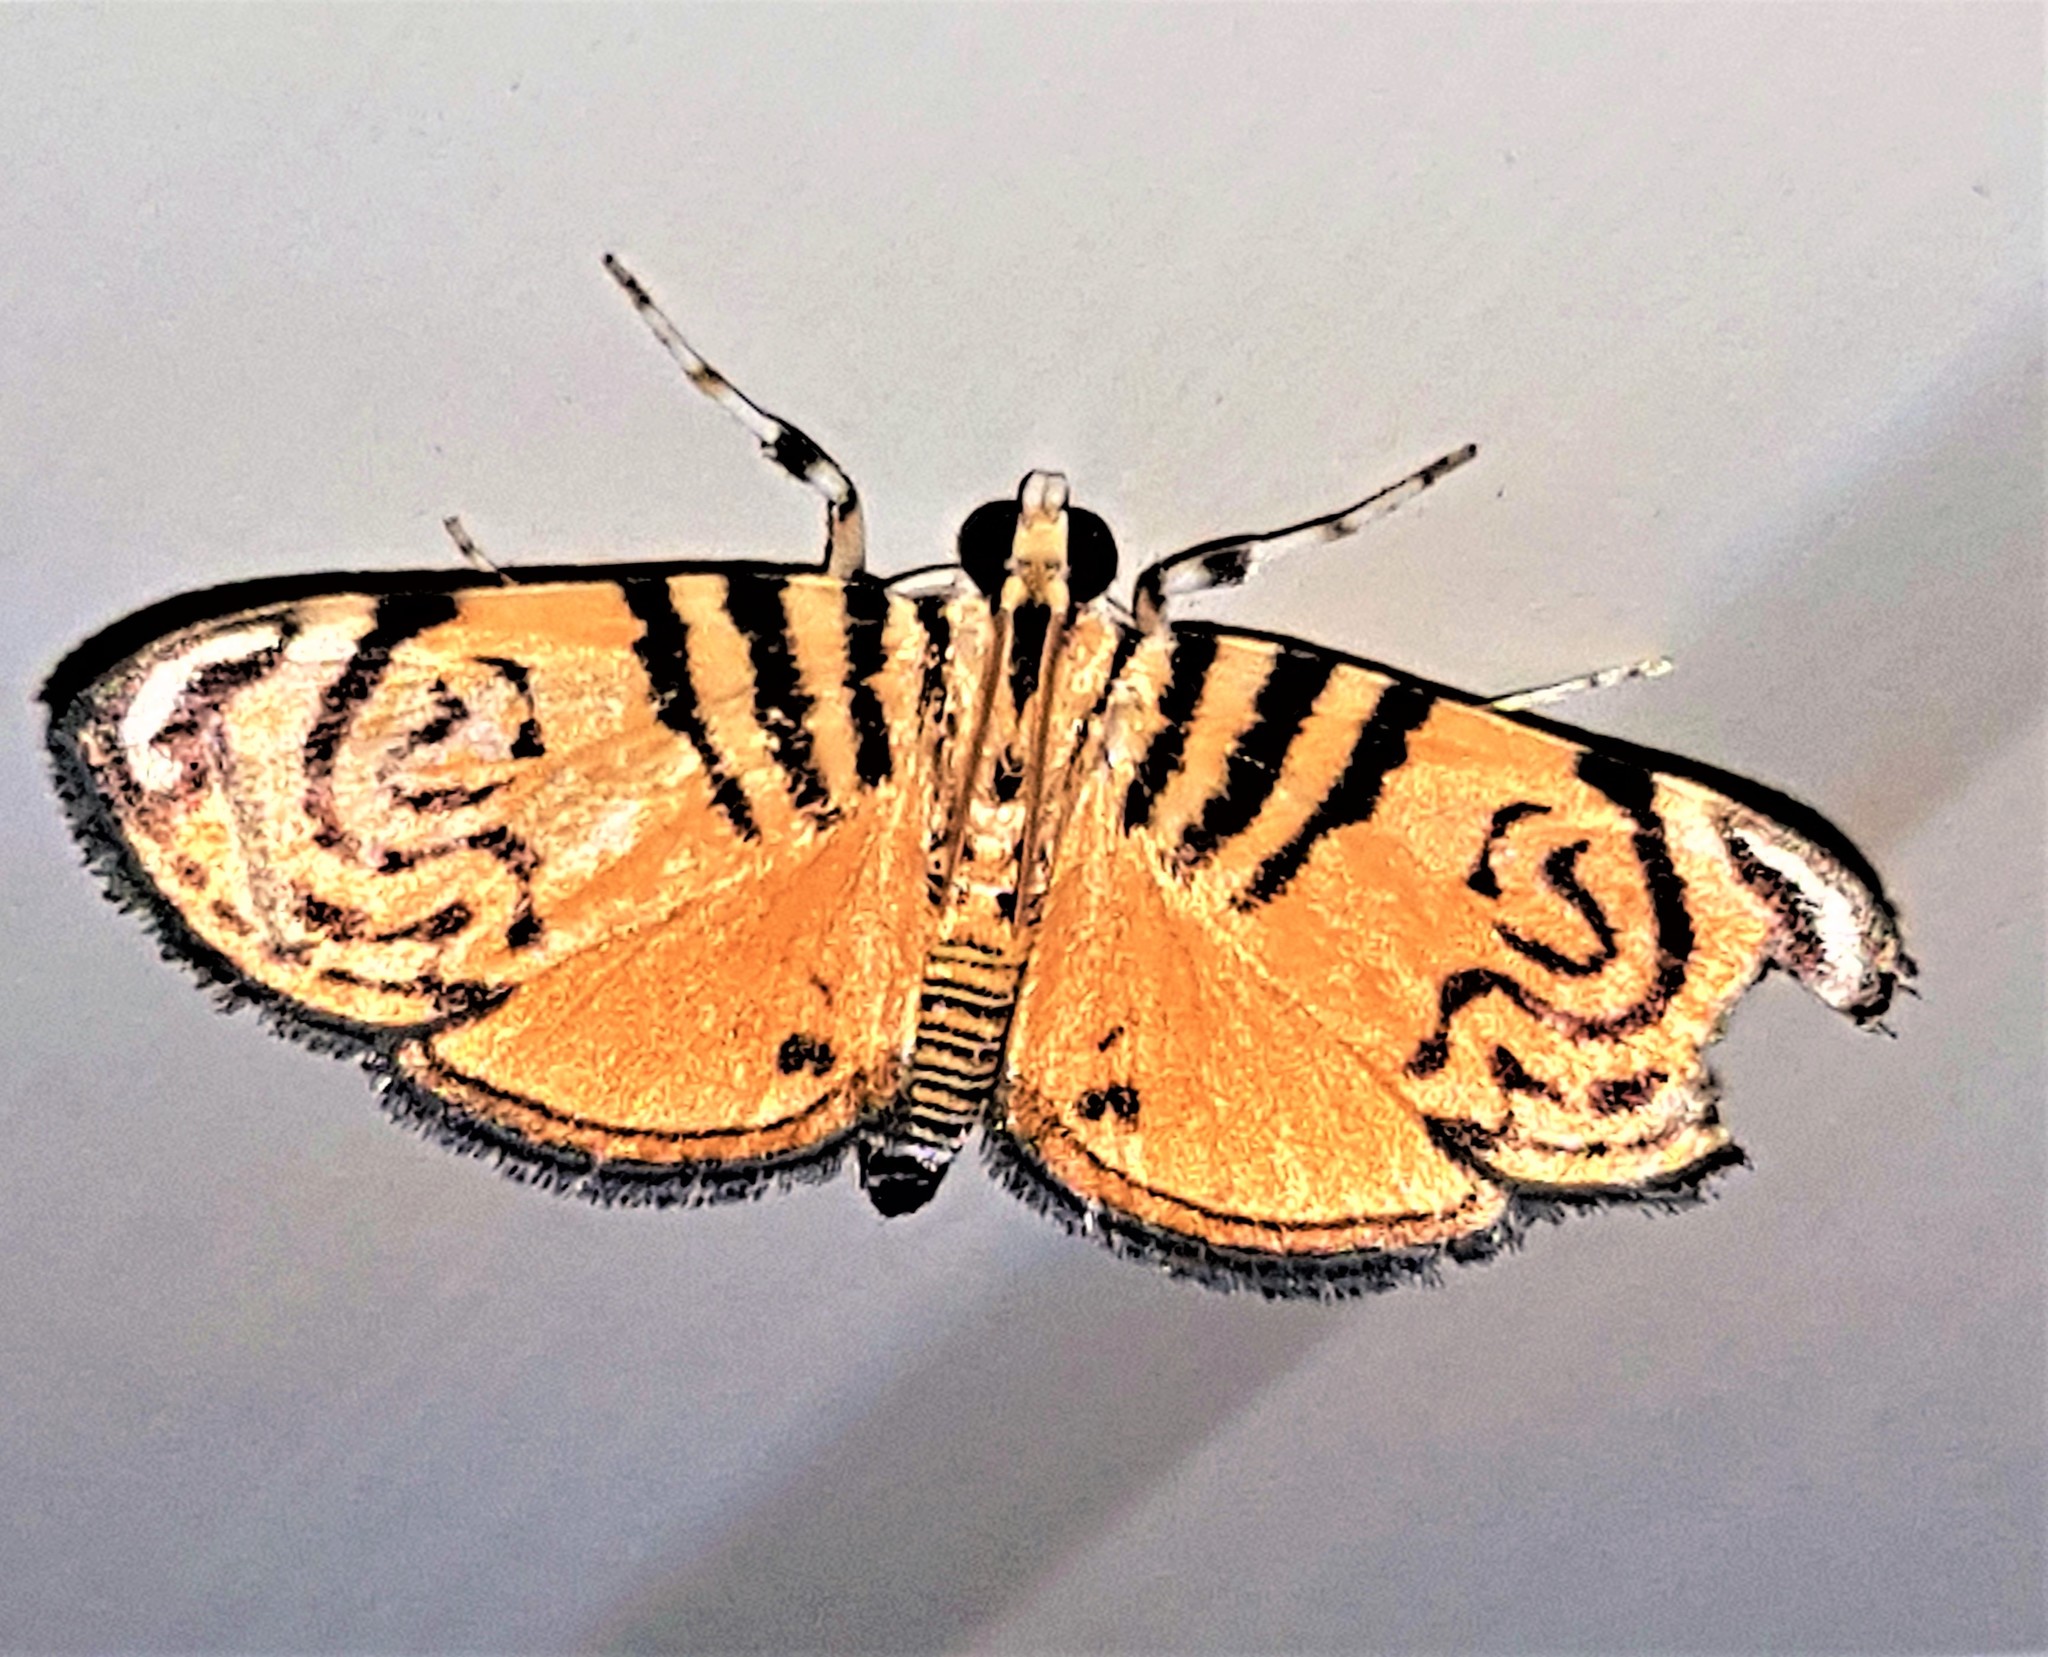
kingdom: Animalia
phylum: Arthropoda
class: Insecta
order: Lepidoptera
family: Crambidae
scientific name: Crambidae
